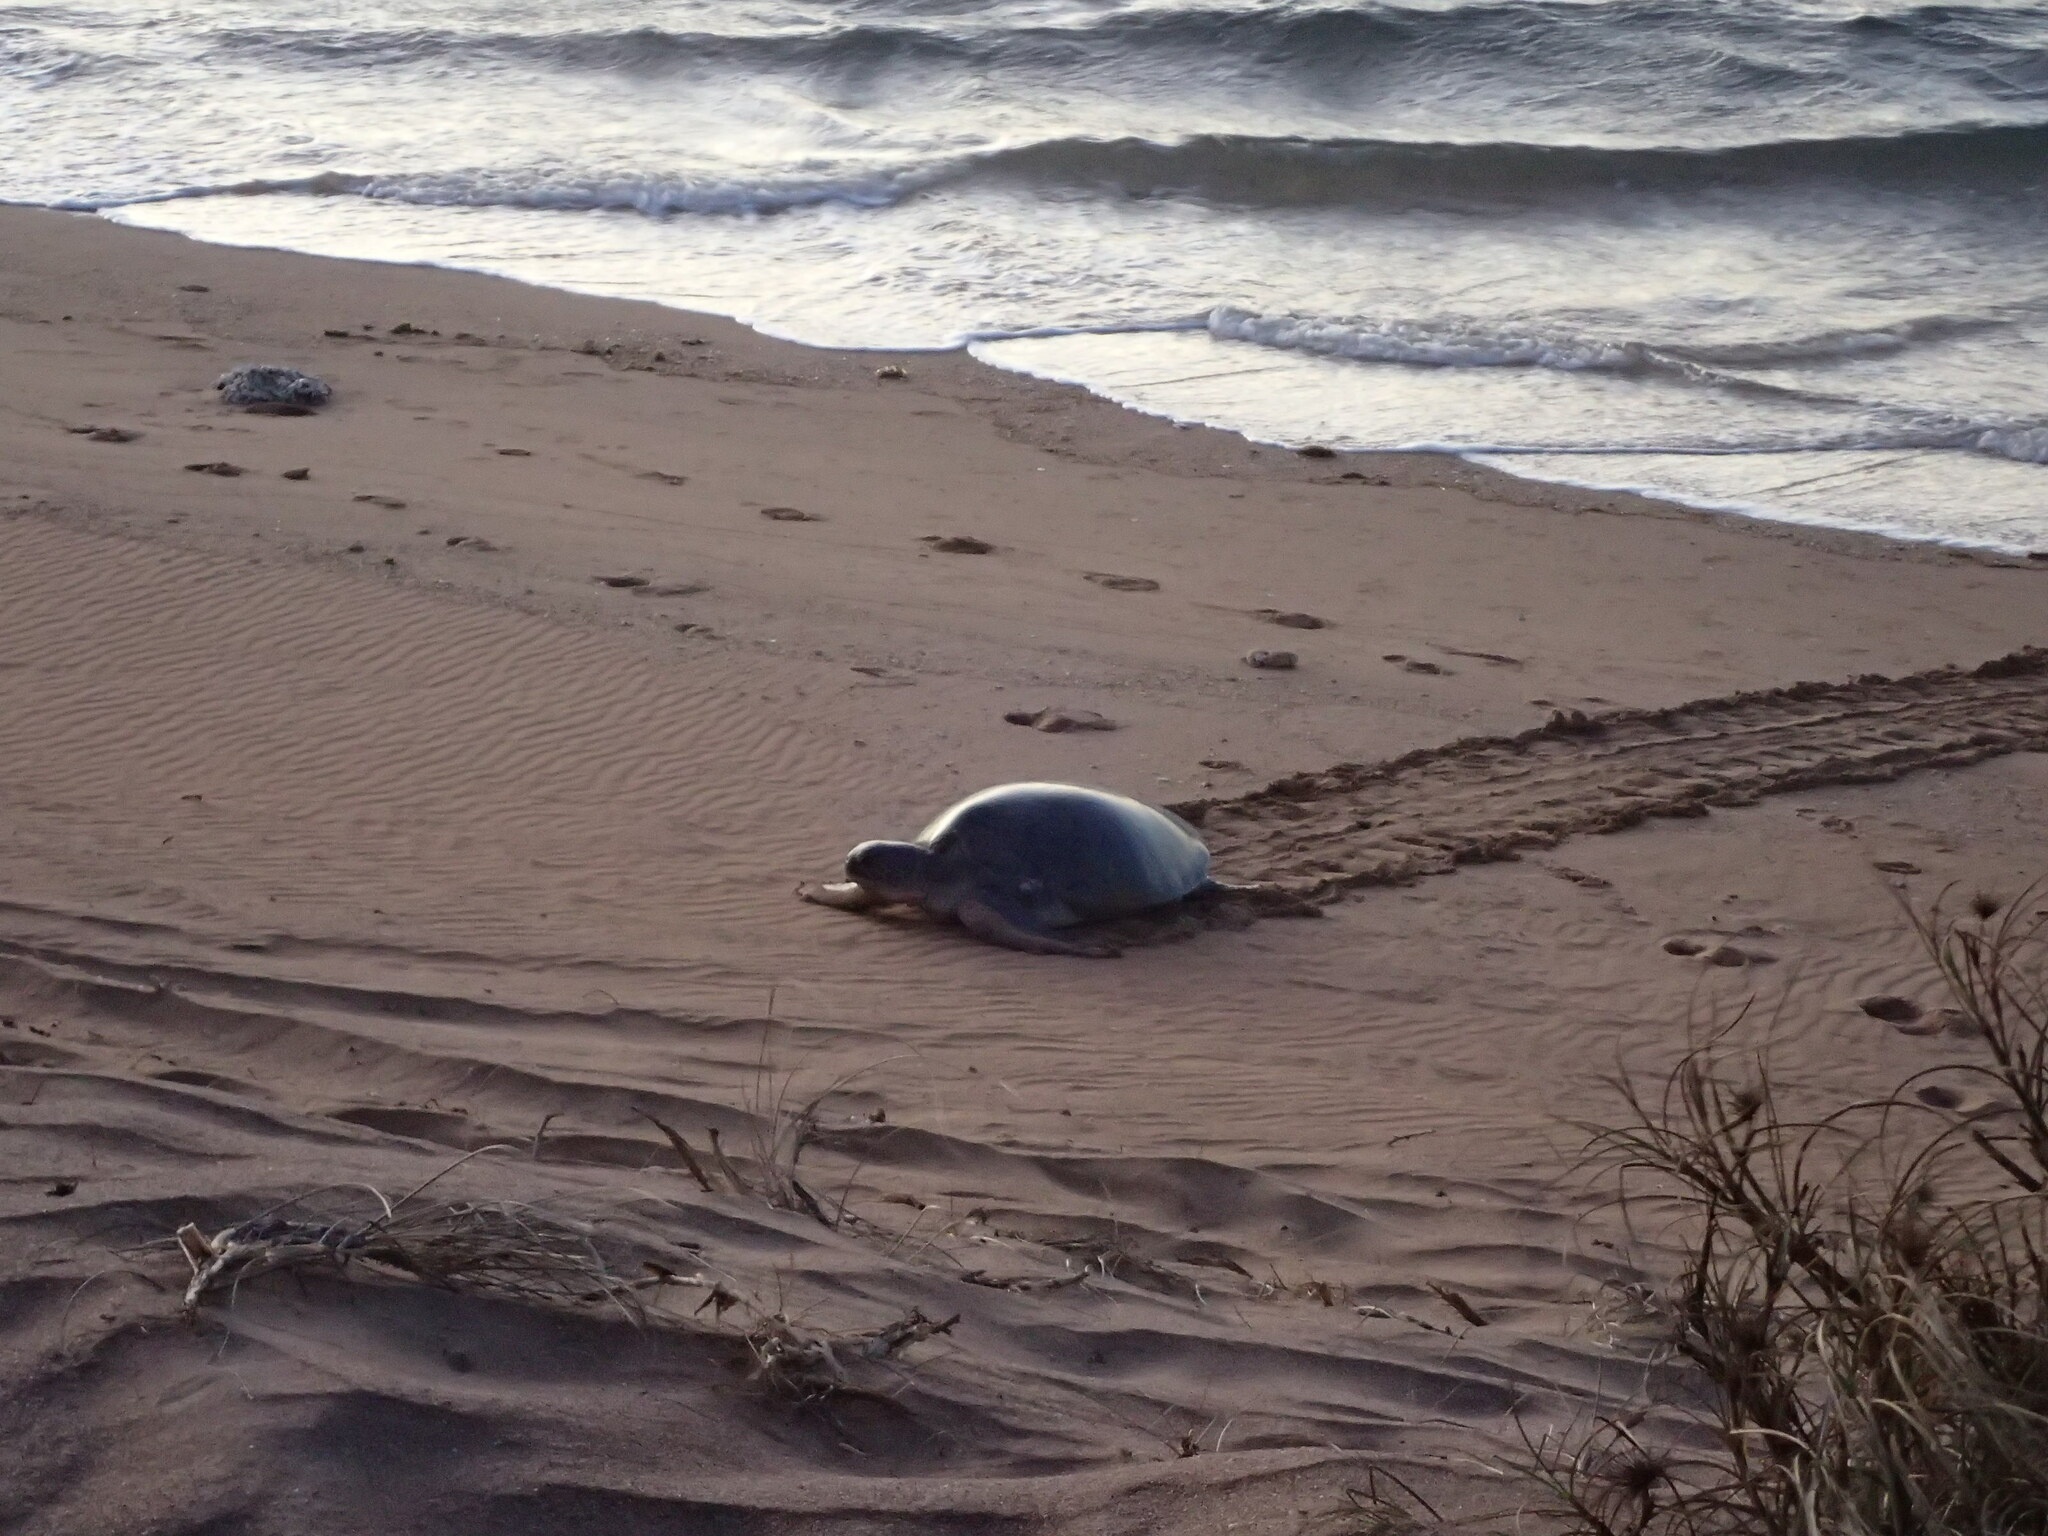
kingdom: Animalia
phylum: Chordata
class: Testudines
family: Cheloniidae
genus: Natator
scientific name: Natator depressus
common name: Flatback turtle
